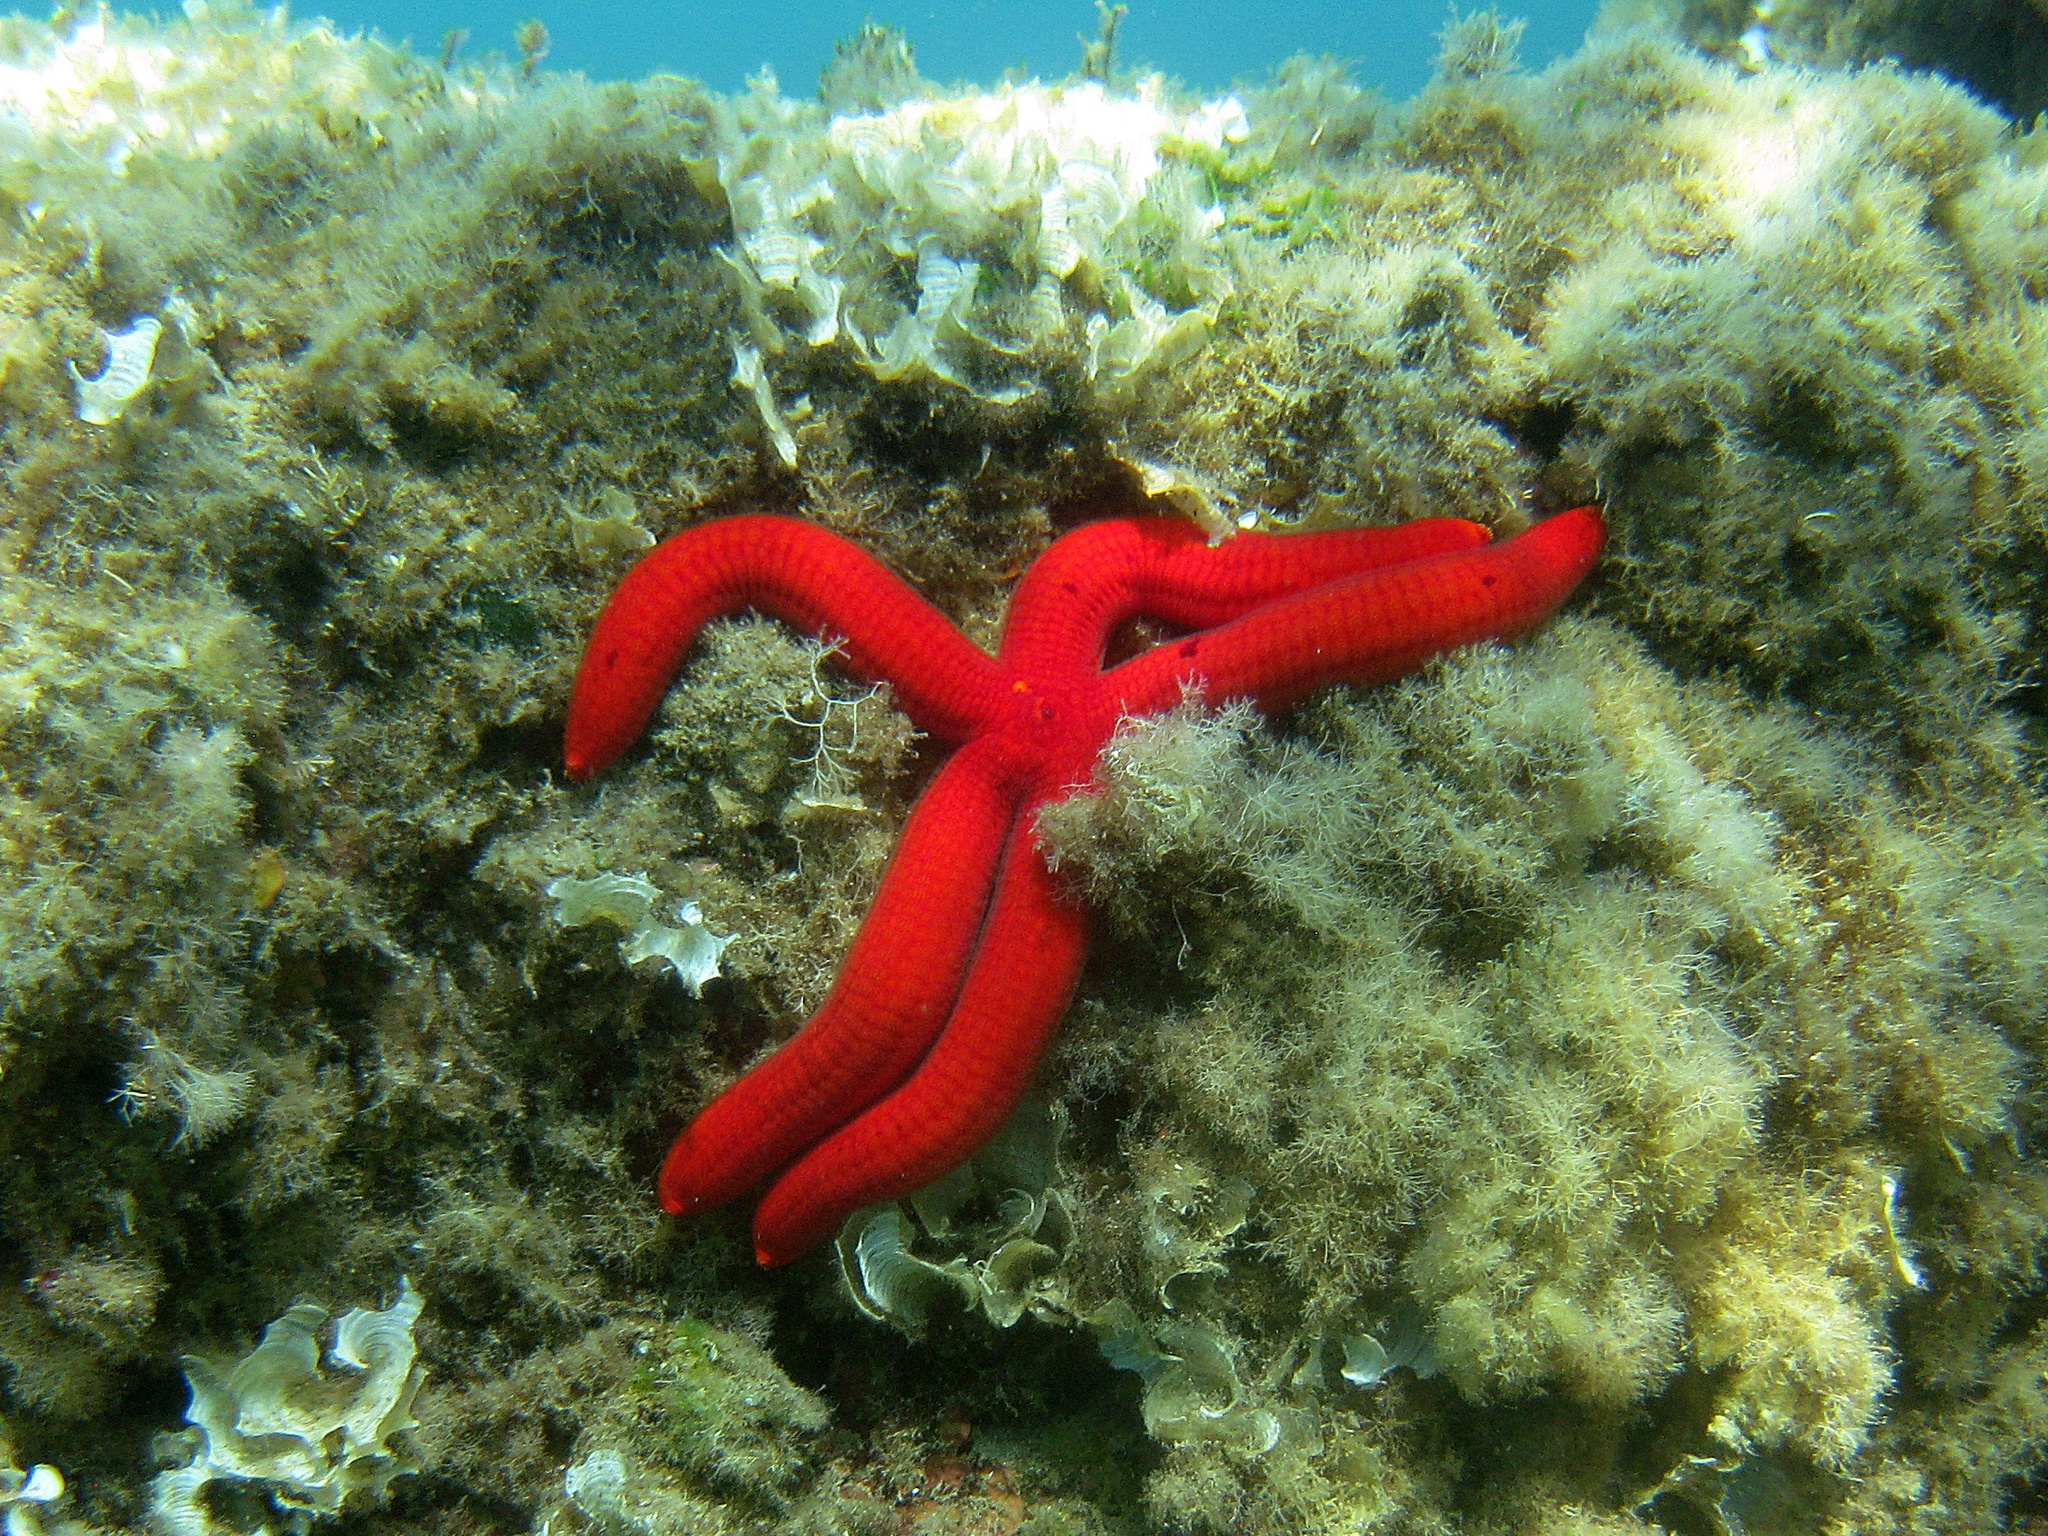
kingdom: Animalia
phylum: Echinodermata
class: Asteroidea
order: Valvatida
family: Ophidiasteridae
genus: Ophidiaster
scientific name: Ophidiaster ophidianus
